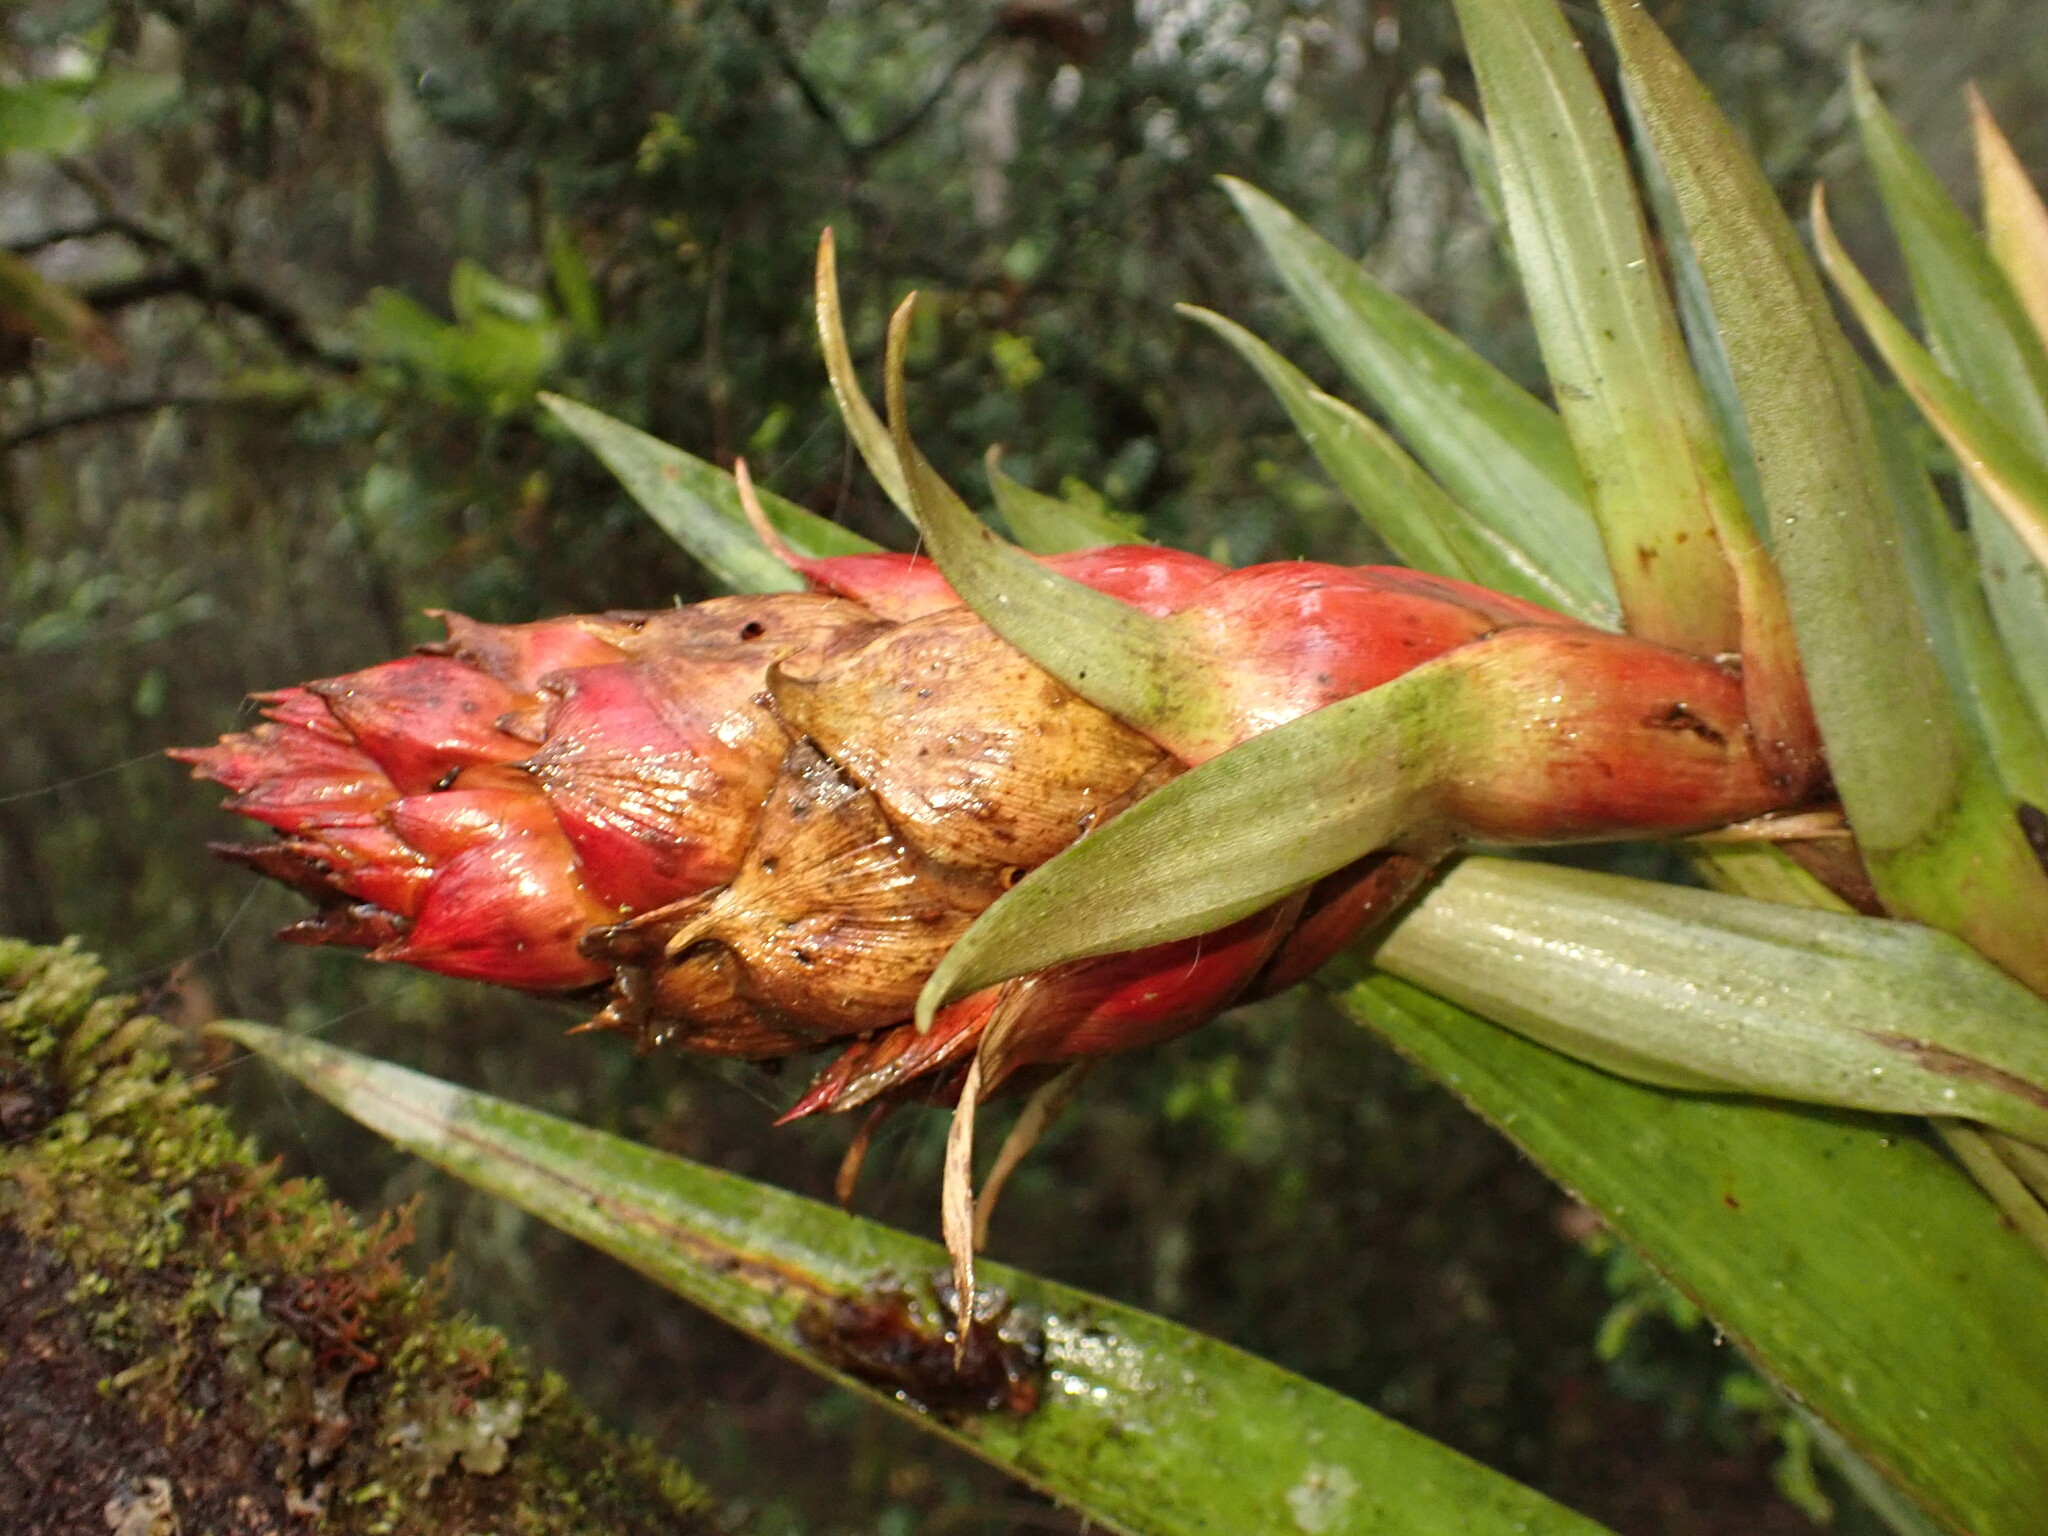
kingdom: Plantae
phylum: Tracheophyta
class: Liliopsida
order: Poales
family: Bromeliaceae
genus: Tillandsia
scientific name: Tillandsia turneri
